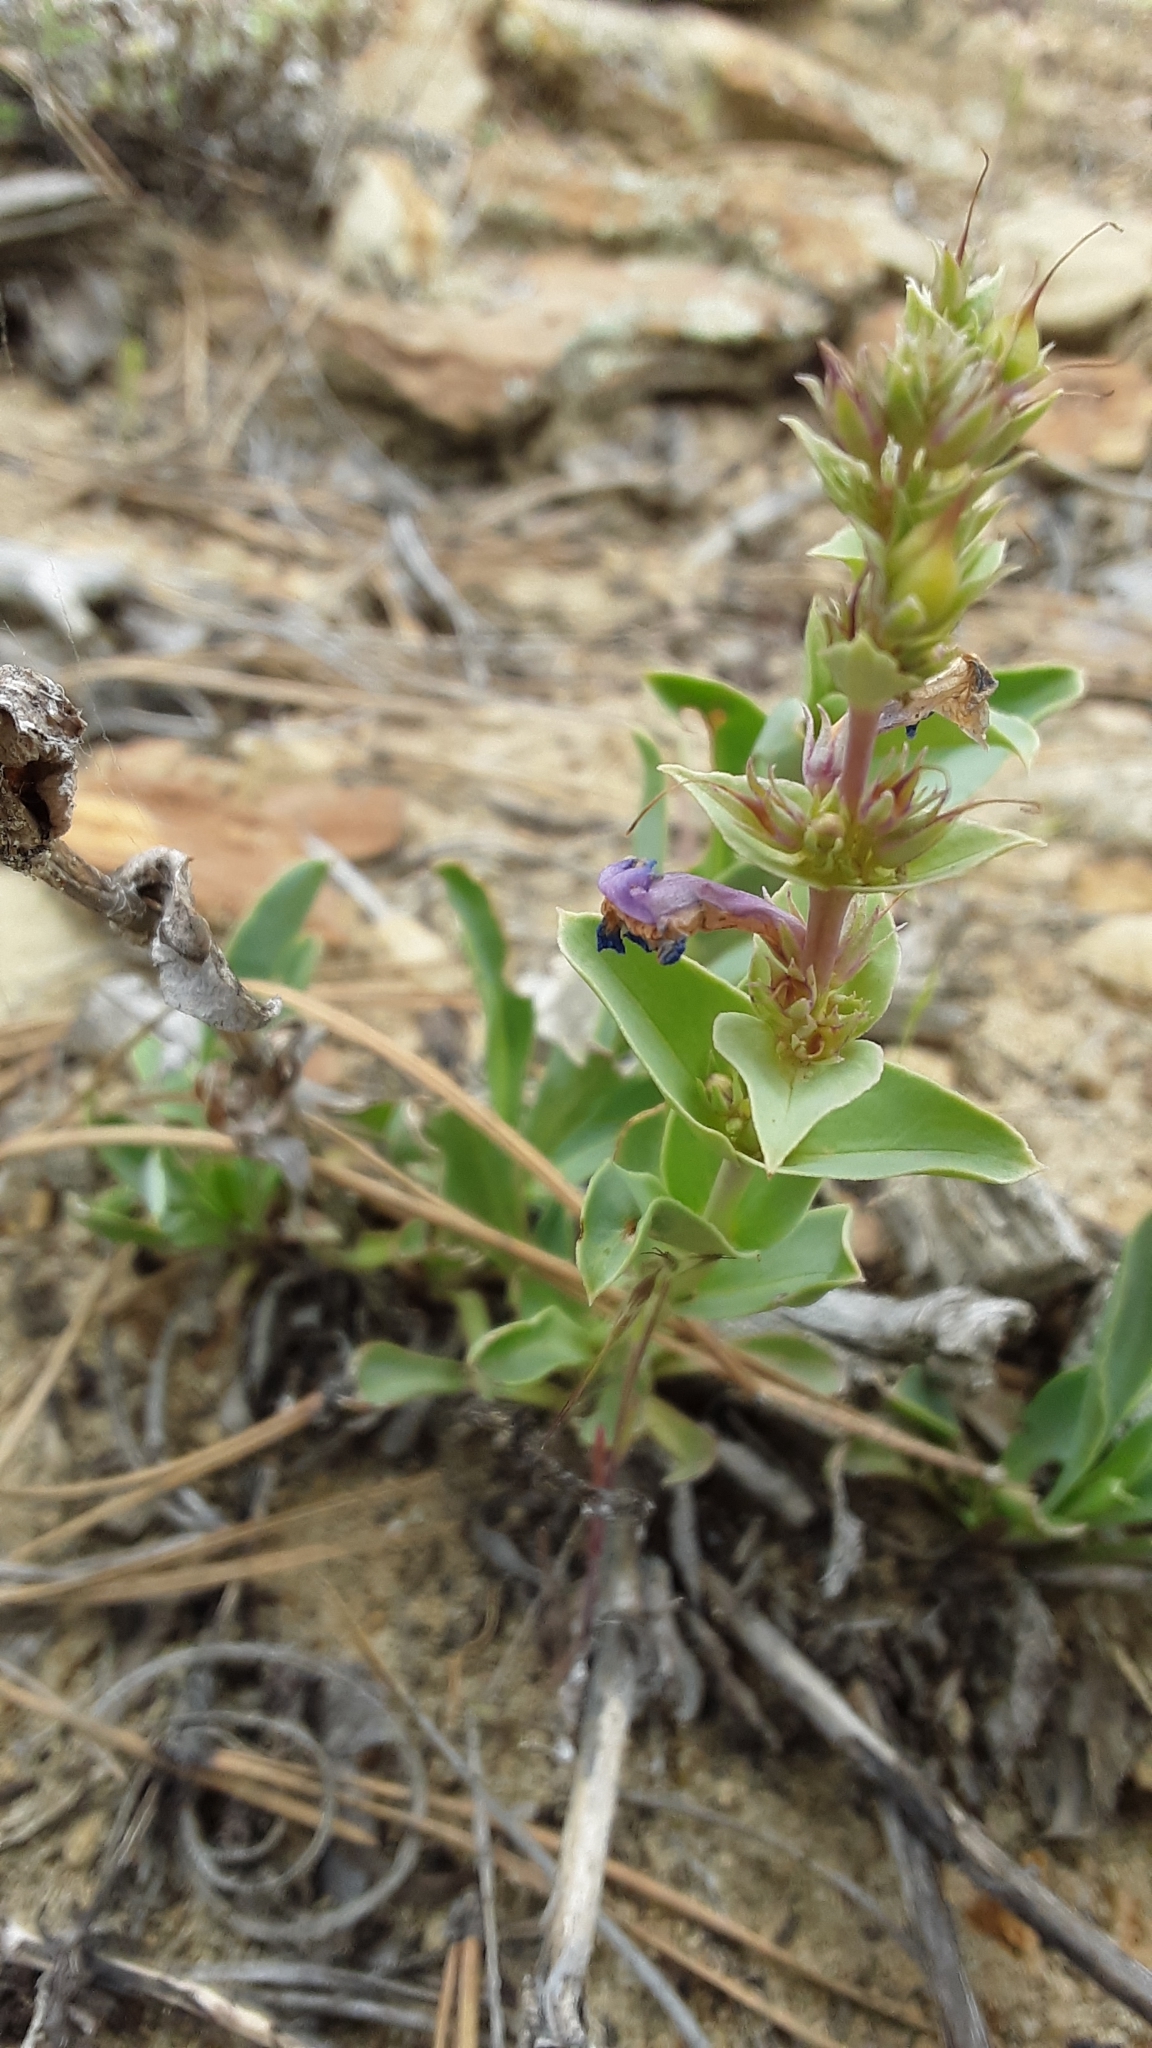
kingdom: Plantae
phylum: Tracheophyta
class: Magnoliopsida
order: Lamiales
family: Plantaginaceae
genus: Penstemon
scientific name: Penstemon nitidus
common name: Shining penstemon
